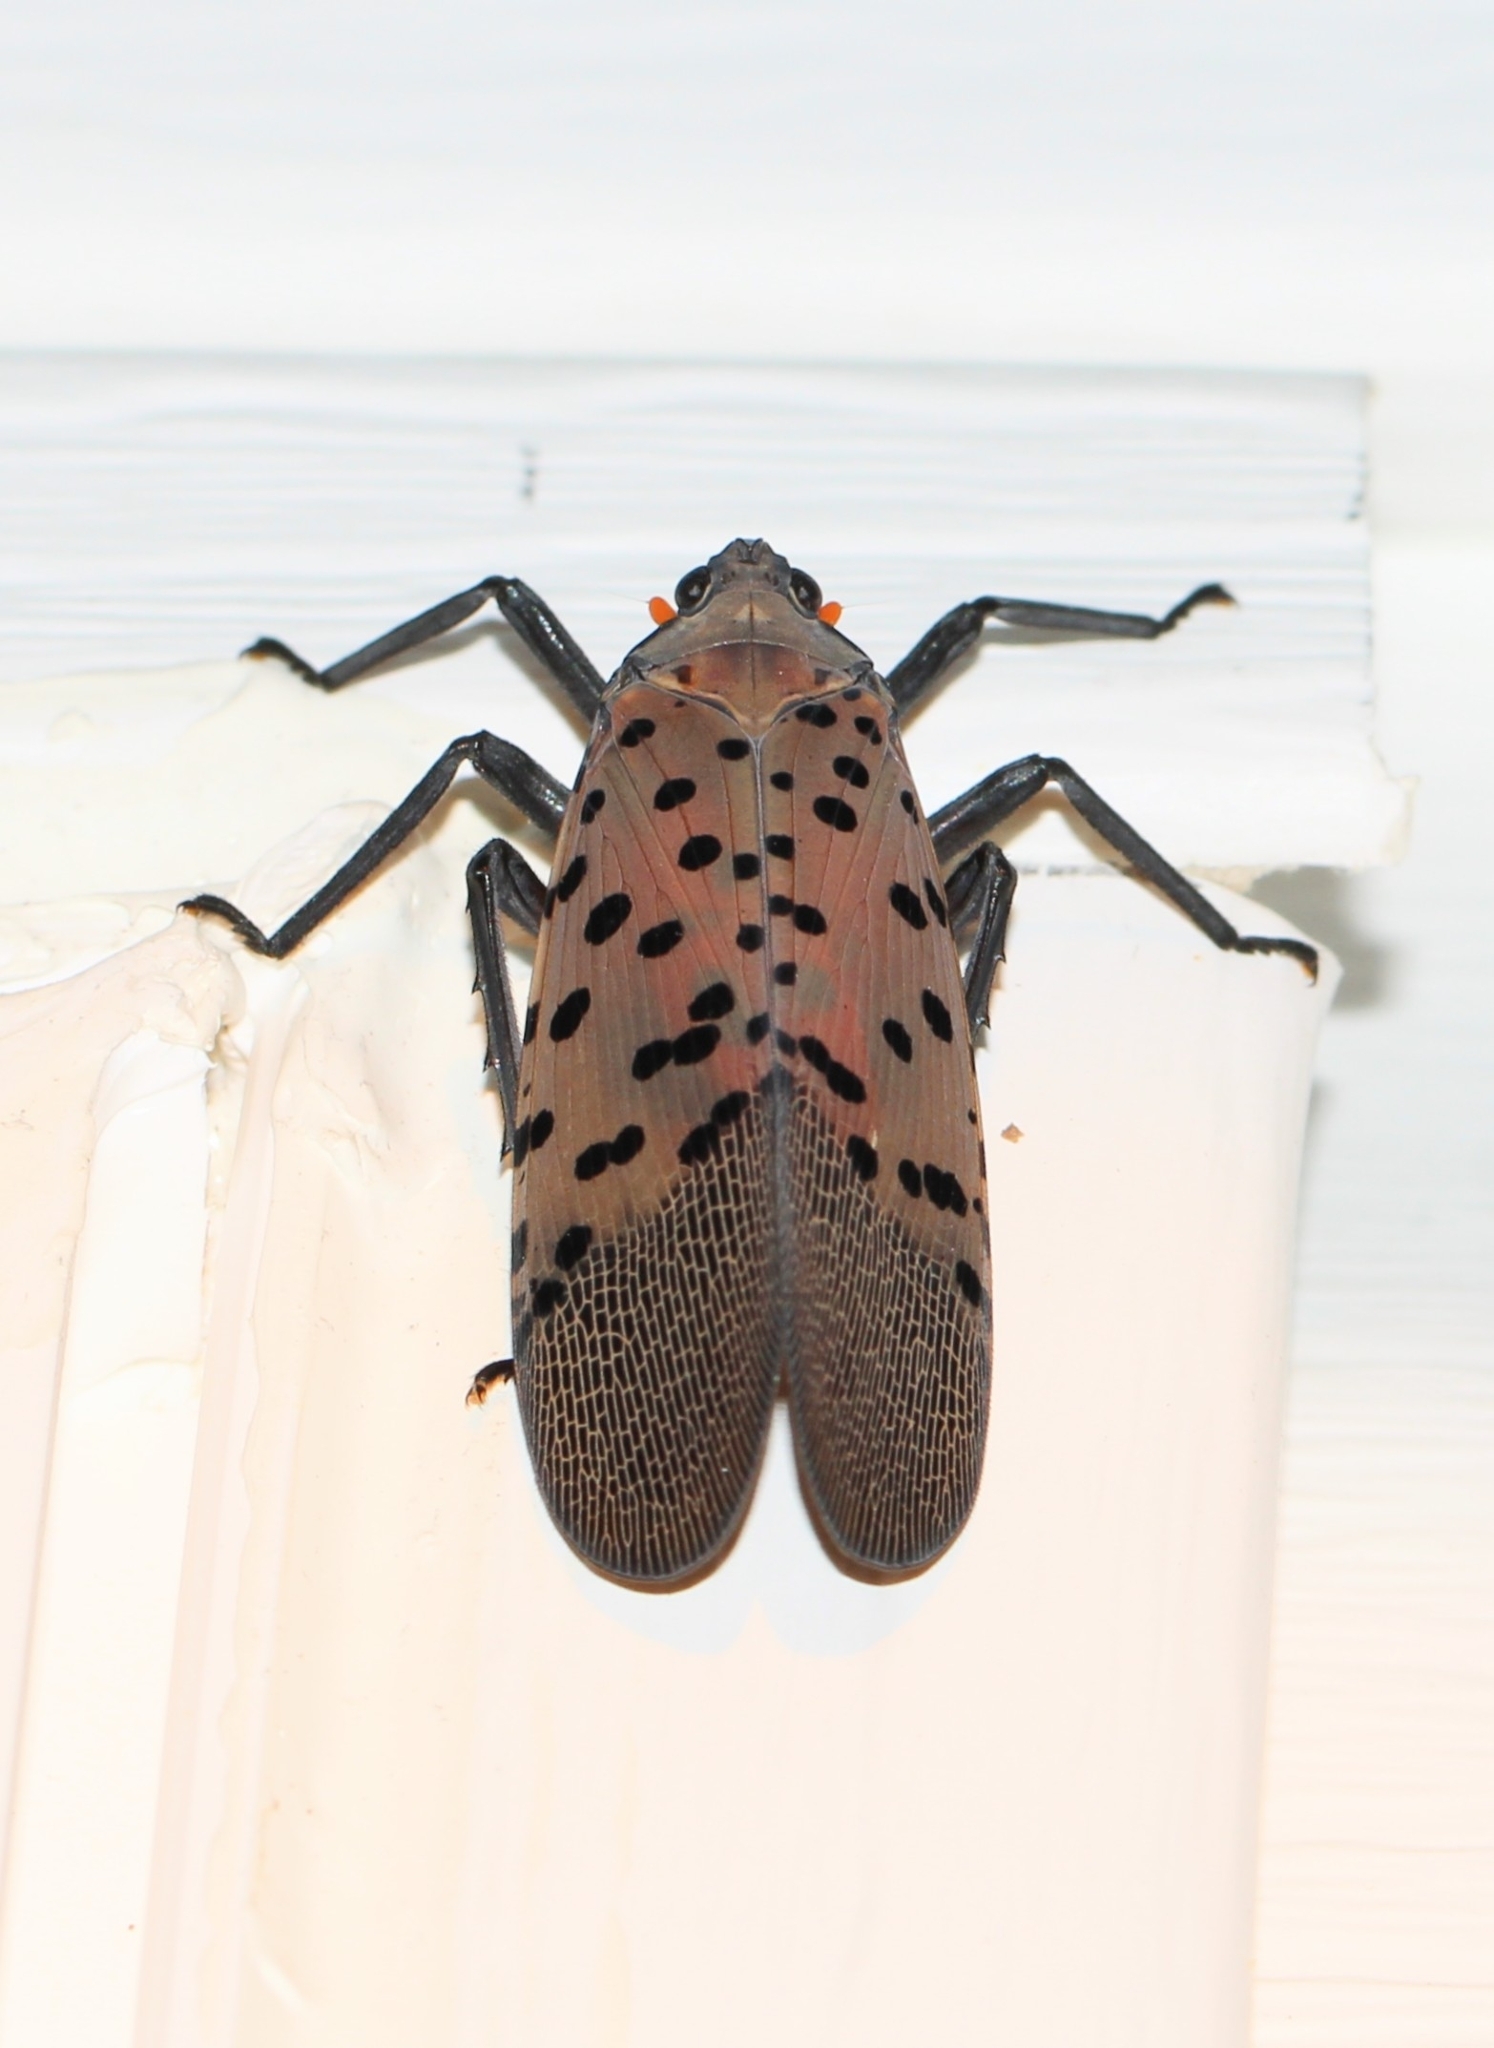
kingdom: Animalia
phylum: Arthropoda
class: Insecta
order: Hemiptera
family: Fulgoridae
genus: Lycorma
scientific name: Lycorma delicatula
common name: Spotted lanternfly
